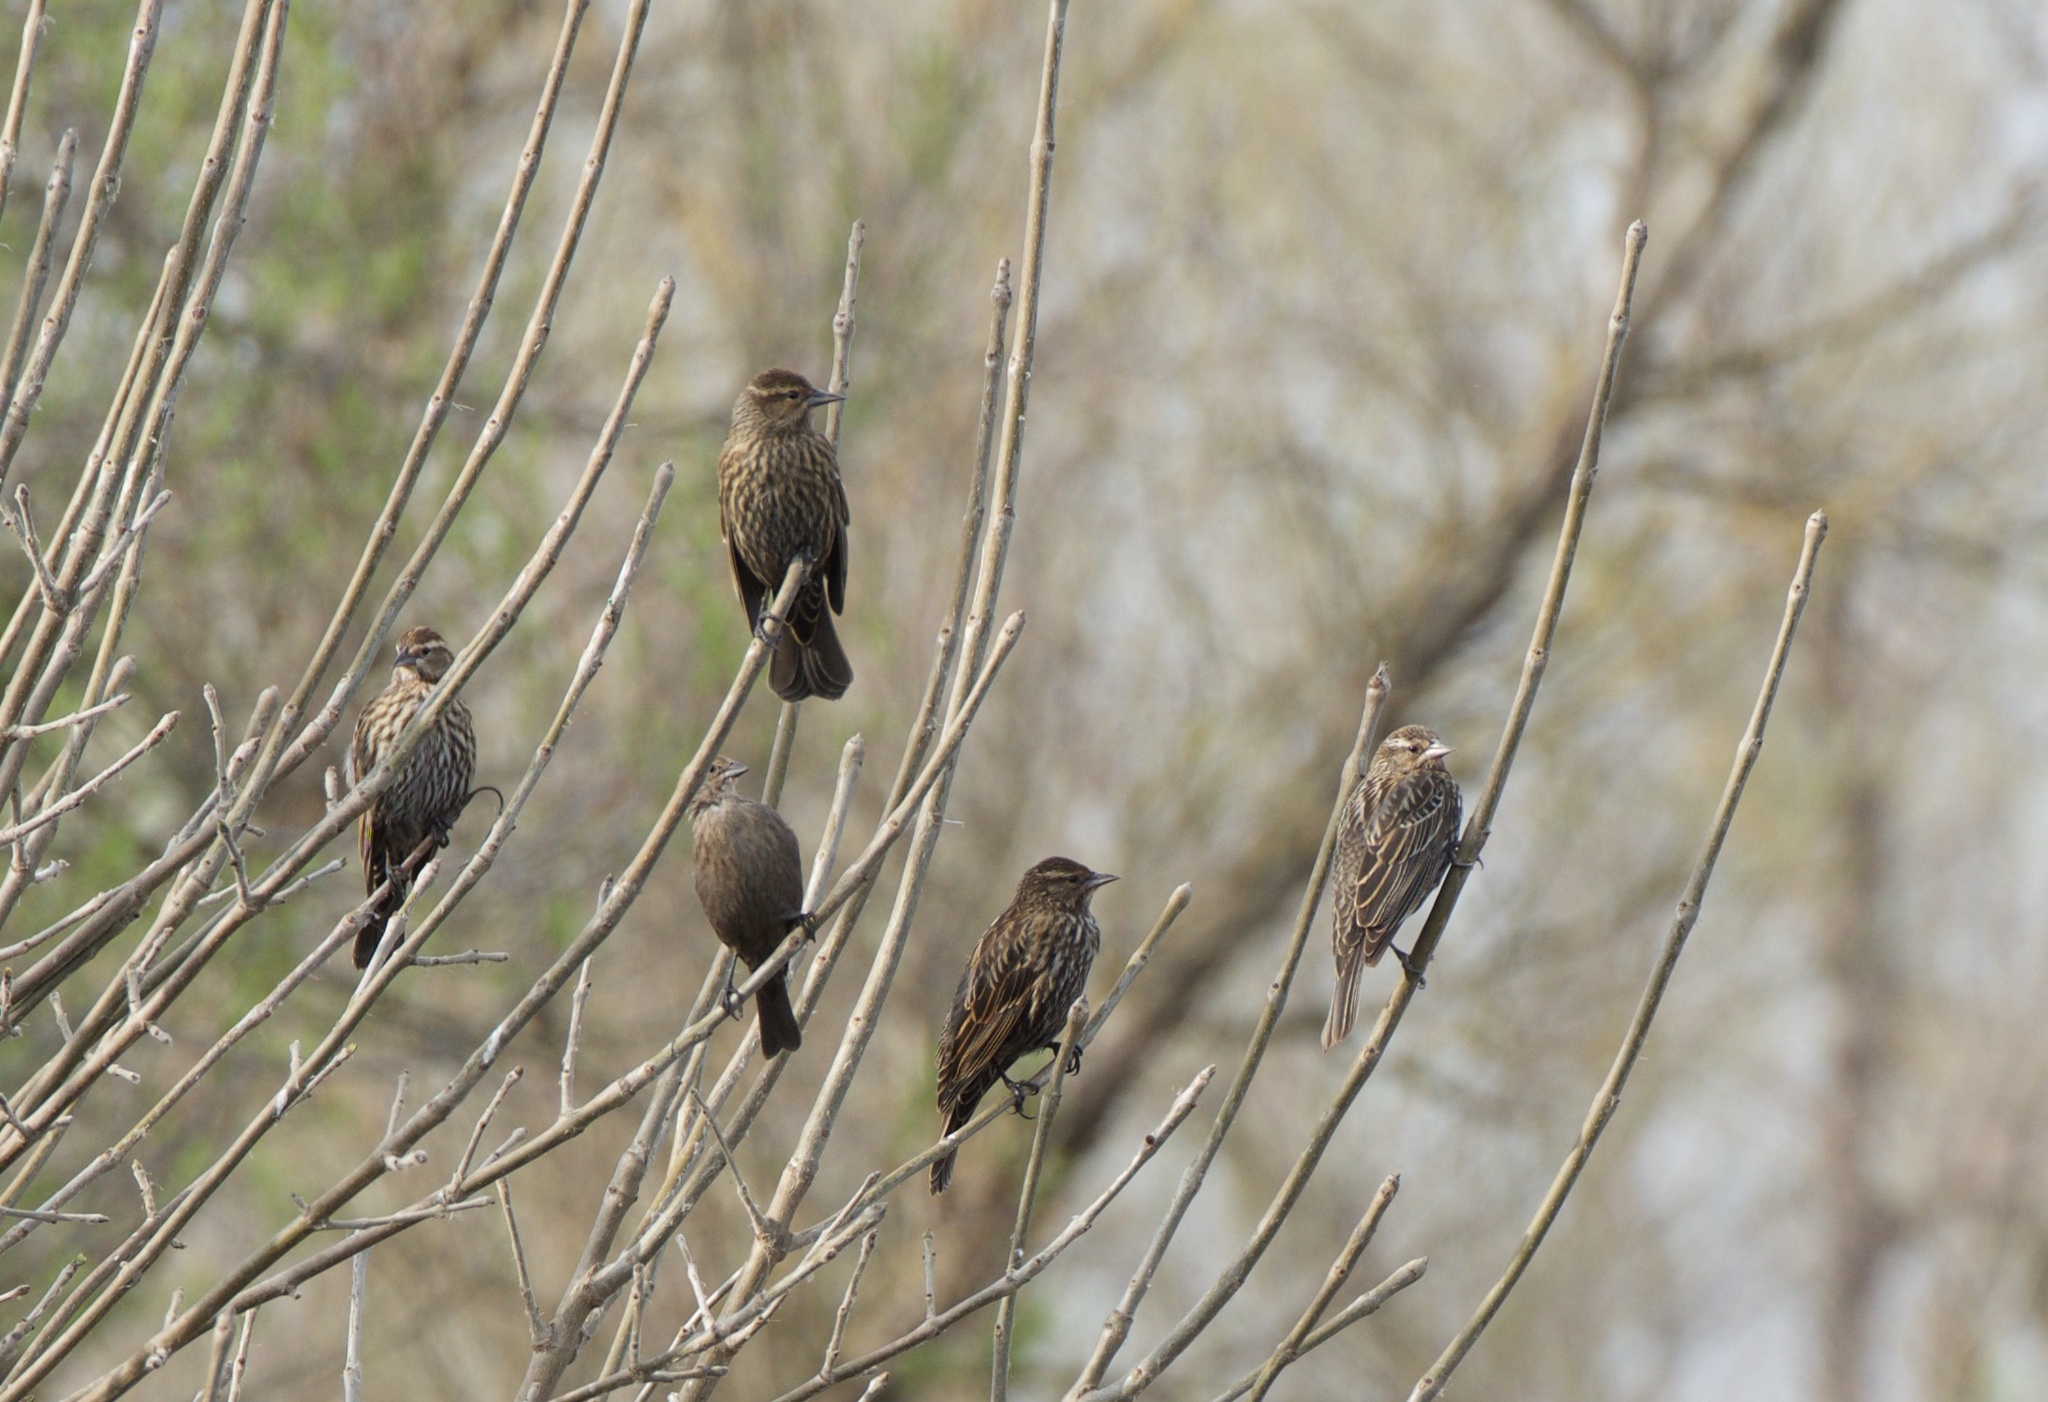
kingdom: Animalia
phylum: Chordata
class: Aves
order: Passeriformes
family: Icteridae
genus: Agelaius
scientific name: Agelaius phoeniceus
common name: Red-winged blackbird
